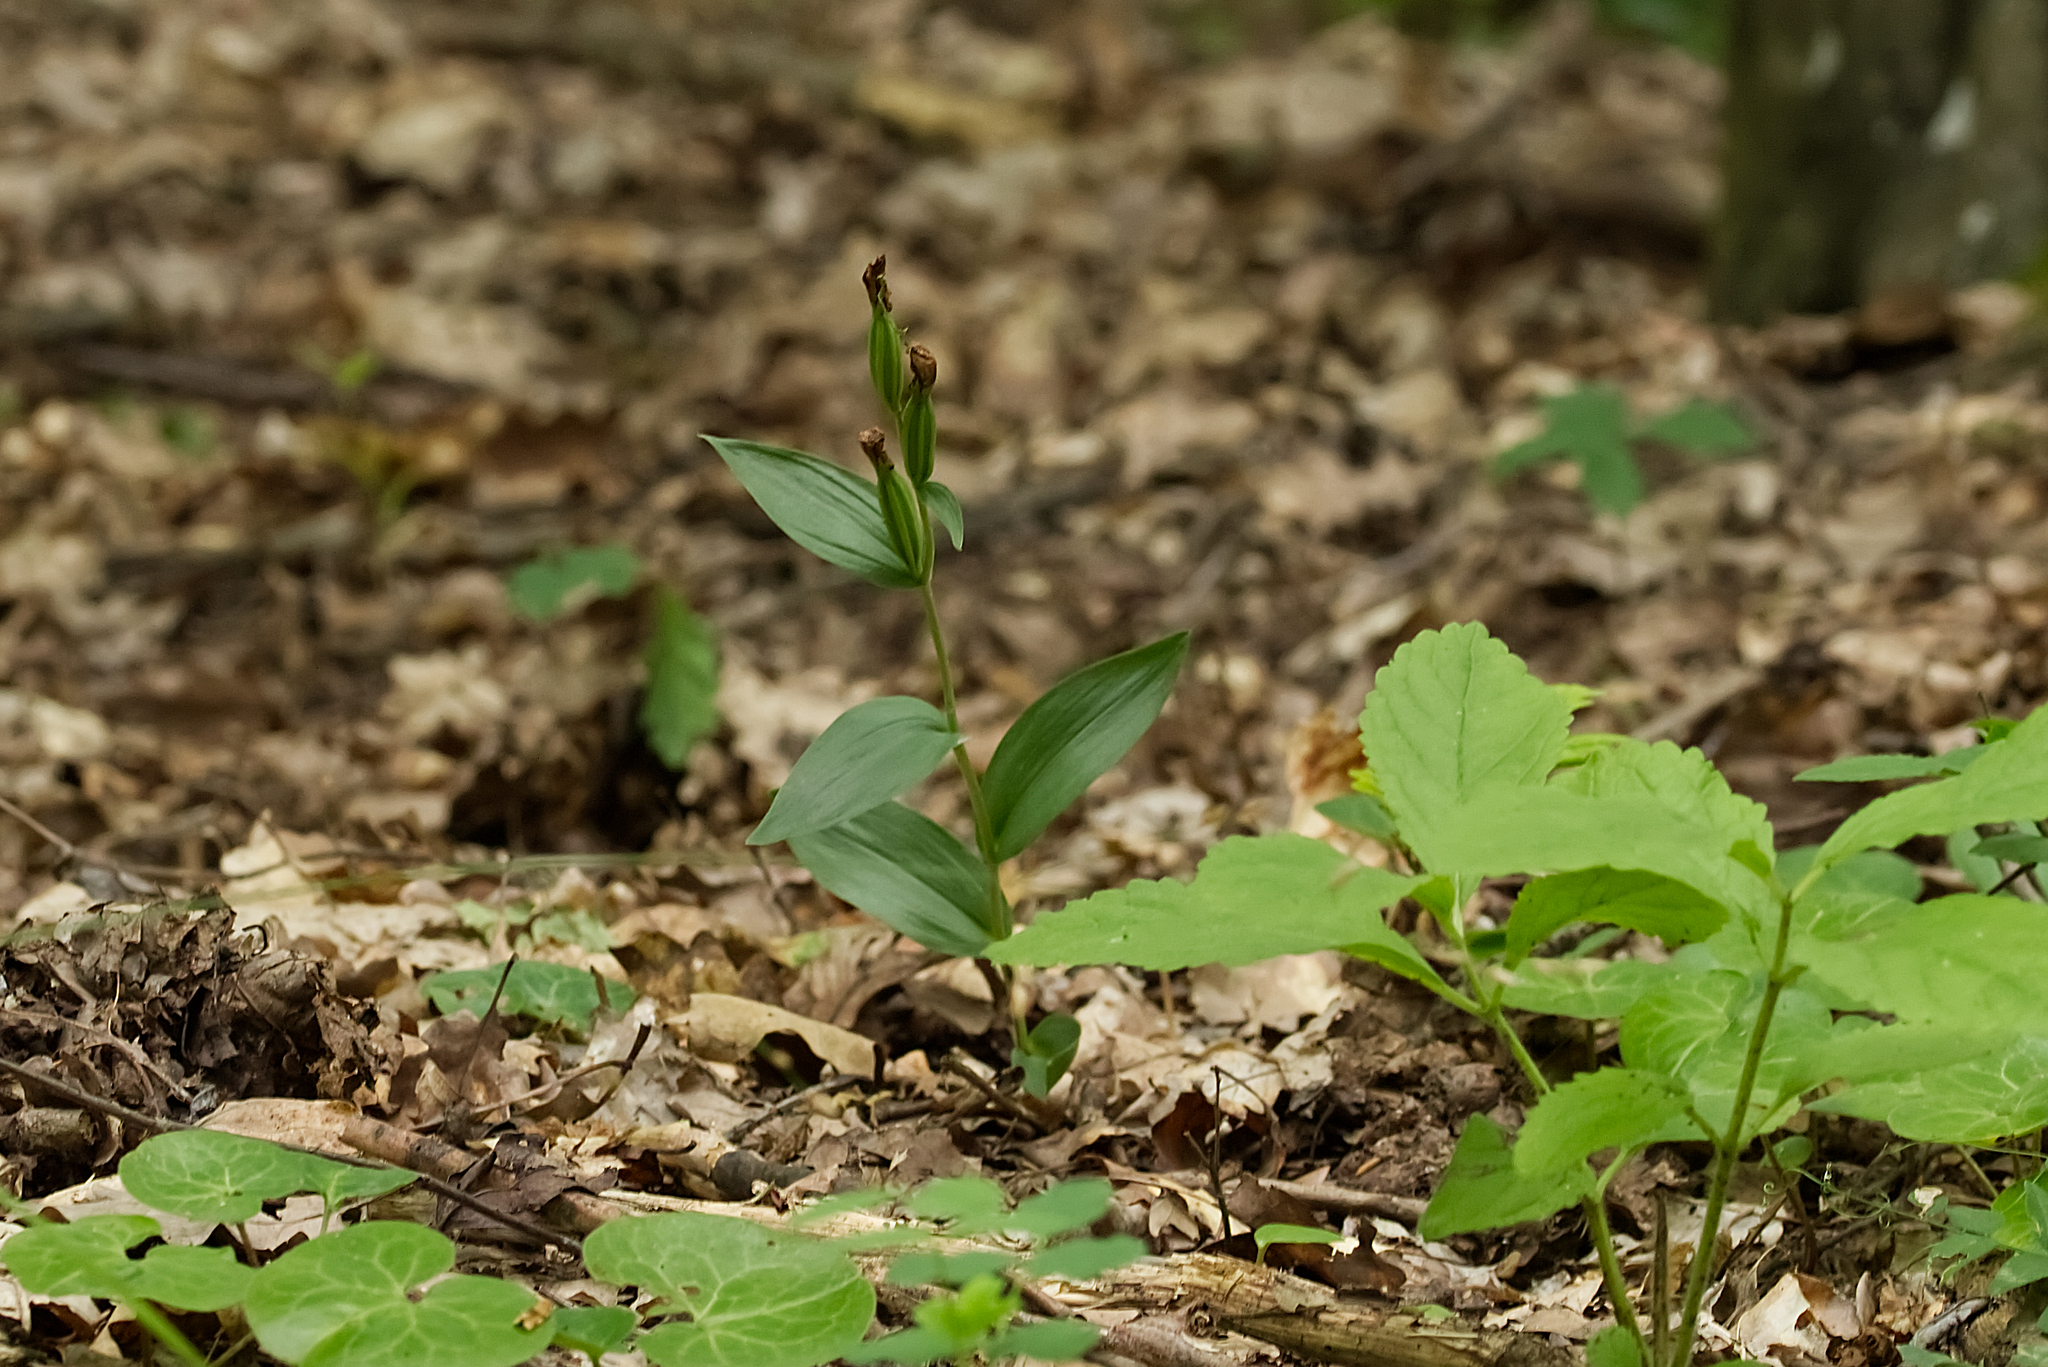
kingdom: Plantae
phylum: Tracheophyta
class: Liliopsida
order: Asparagales
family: Orchidaceae
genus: Cephalanthera
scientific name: Cephalanthera damasonium
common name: White helleborine
